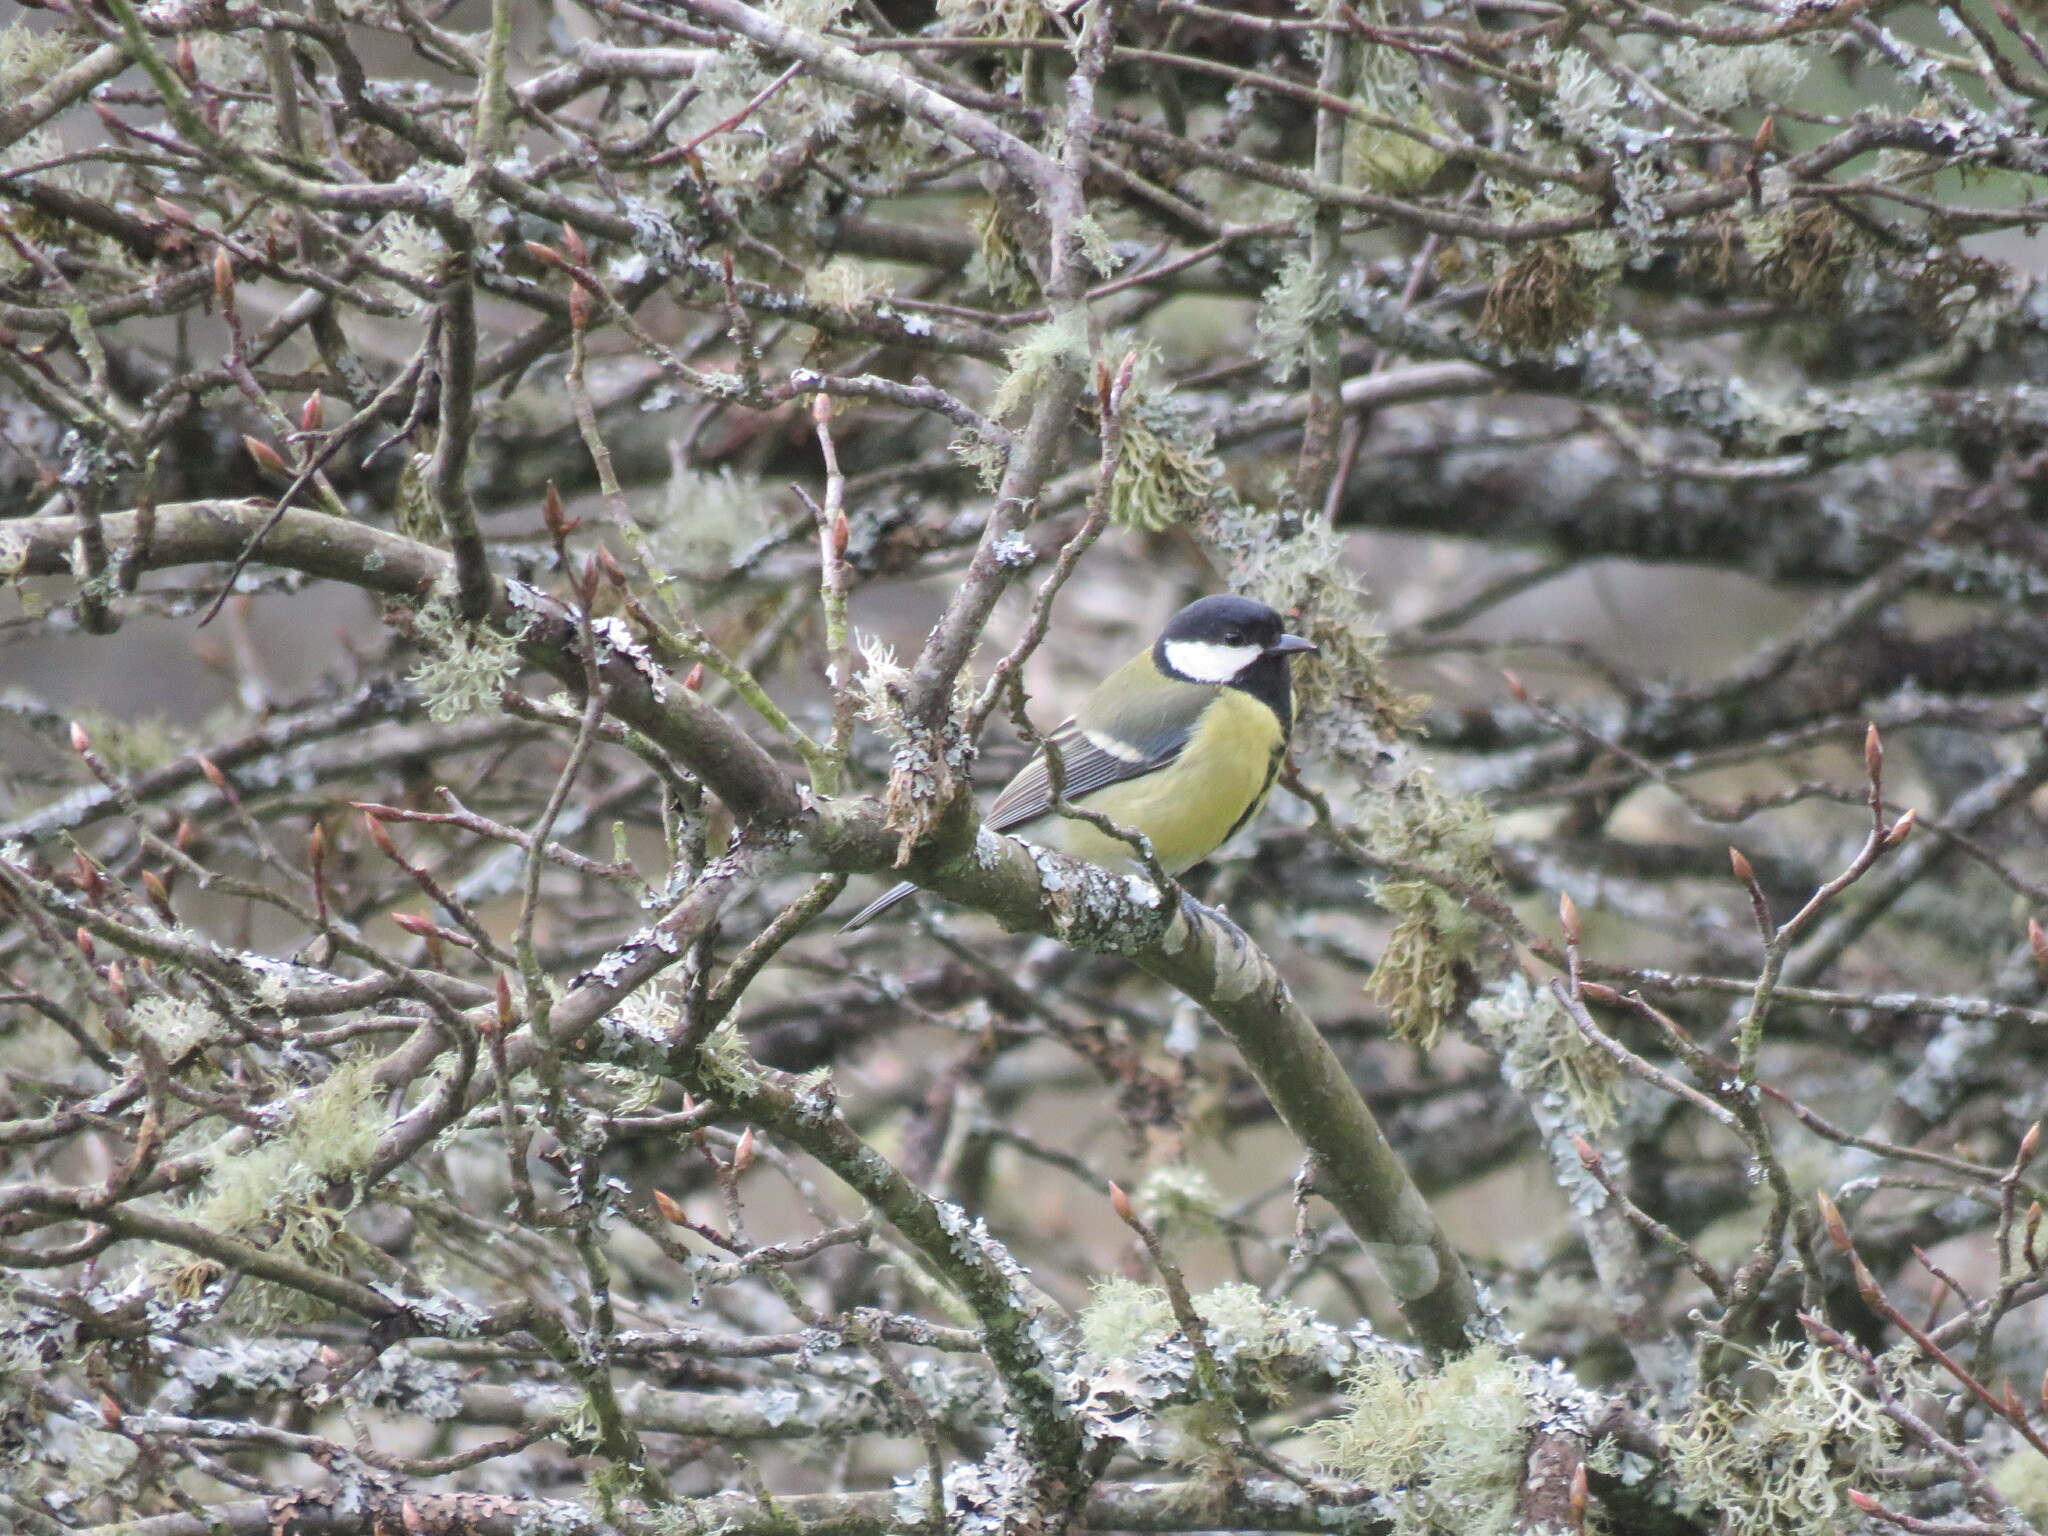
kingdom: Animalia
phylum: Chordata
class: Aves
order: Passeriformes
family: Paridae
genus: Parus
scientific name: Parus major
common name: Great tit
